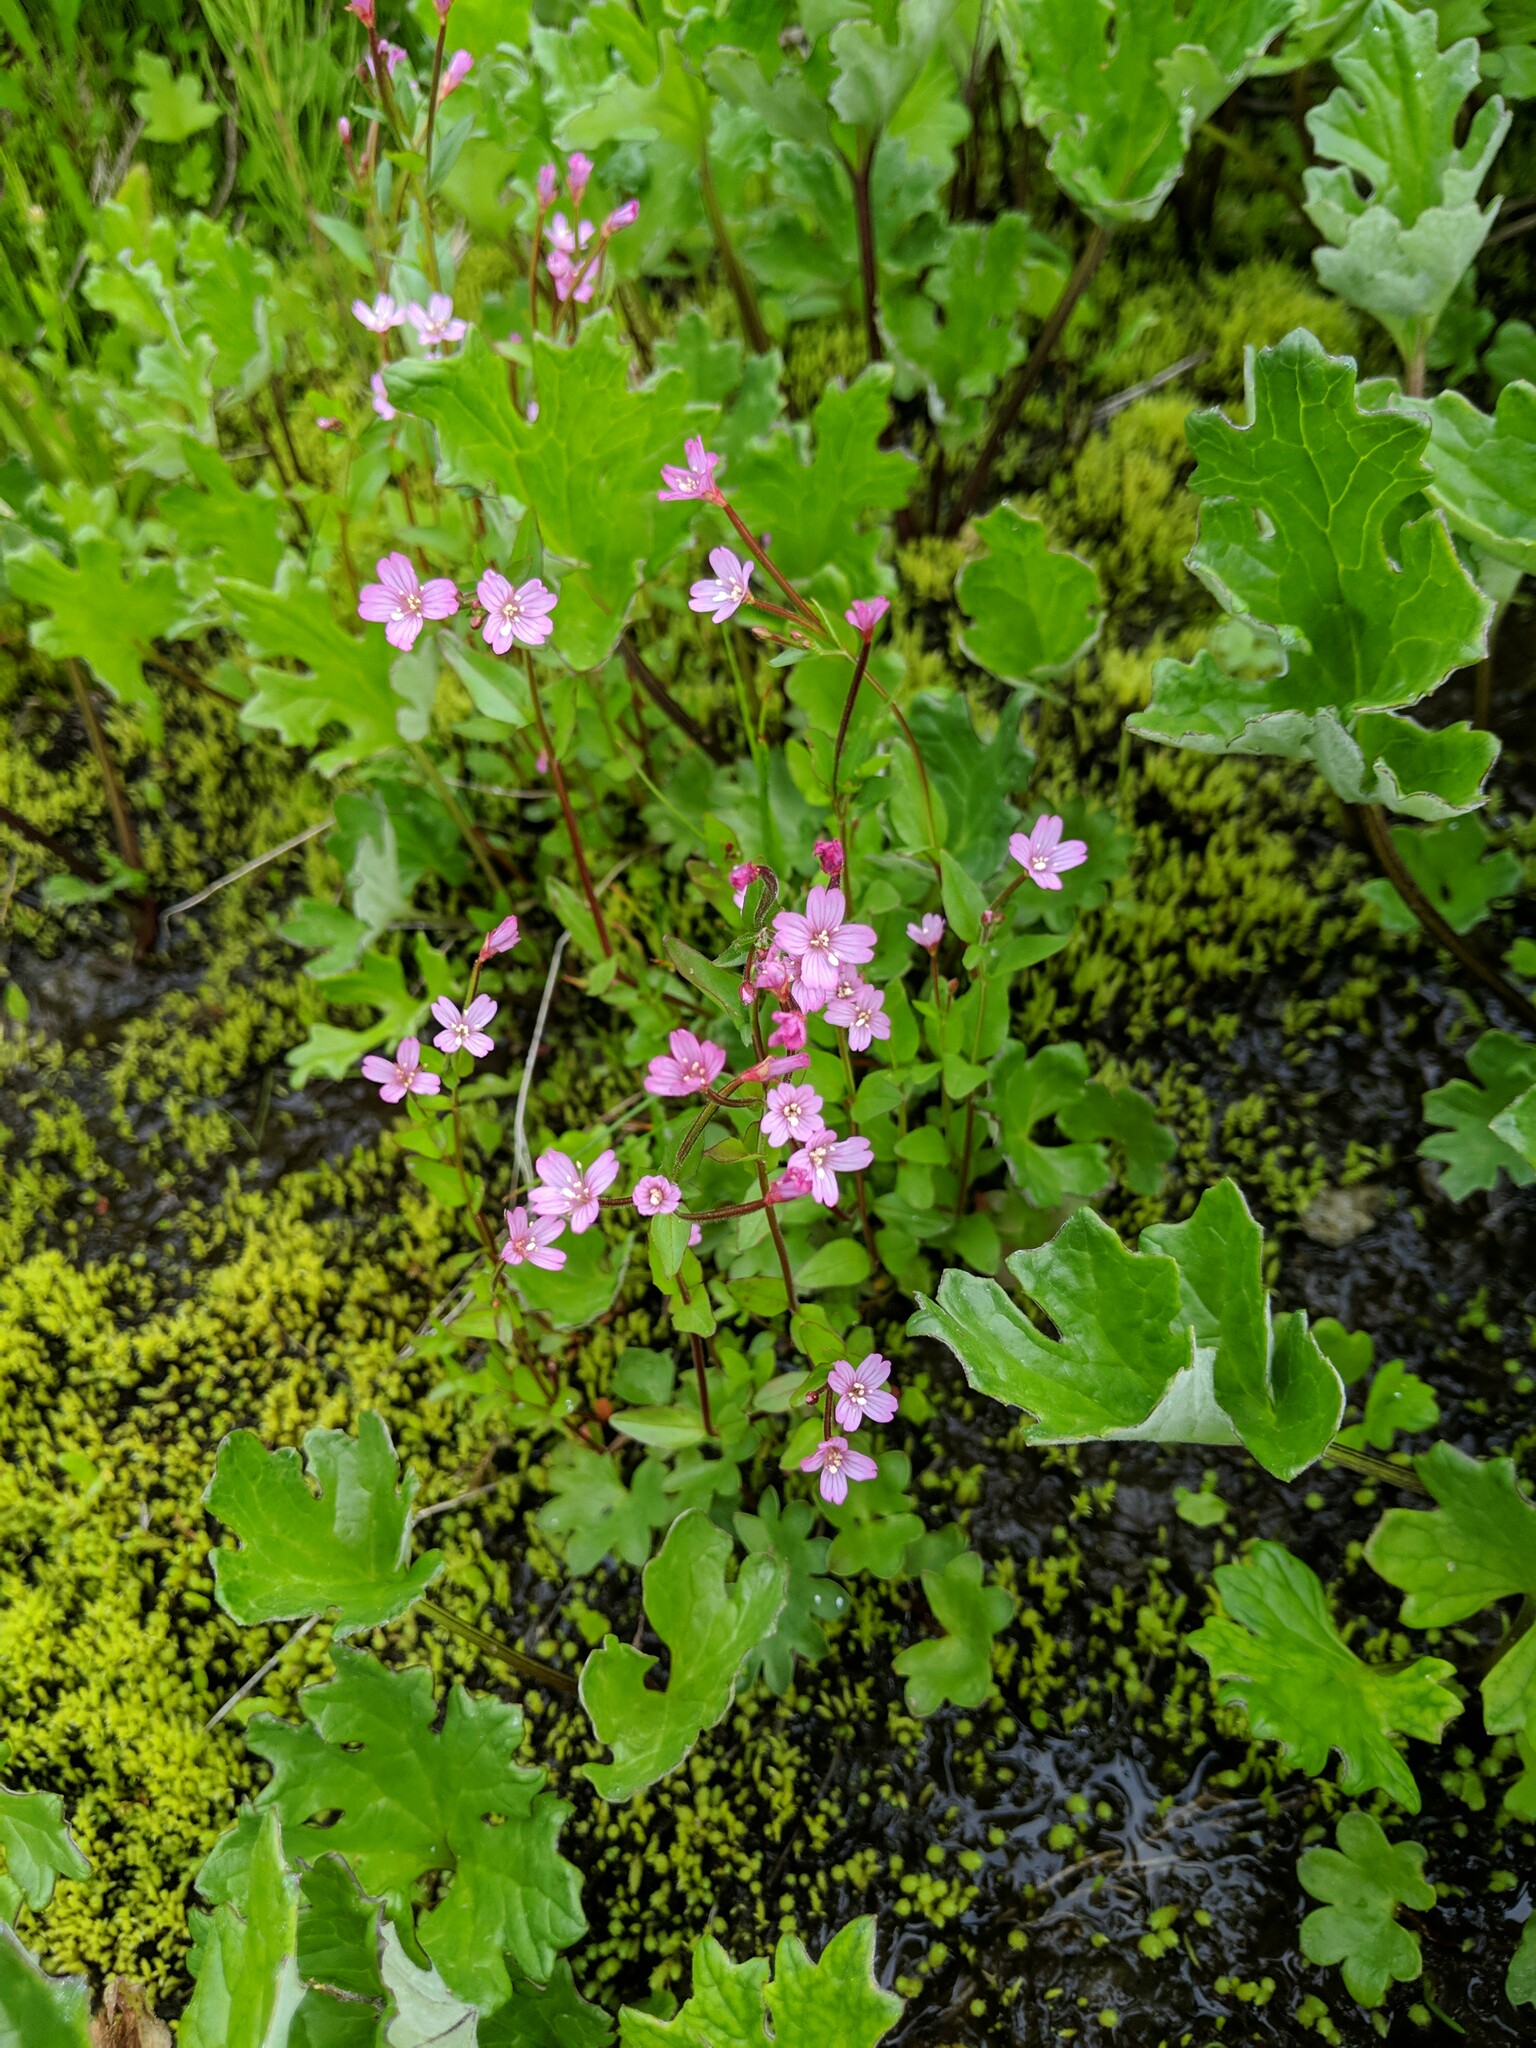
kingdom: Plantae
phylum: Tracheophyta
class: Magnoliopsida
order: Myrtales
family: Onagraceae
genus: Epilobium
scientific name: Epilobium anagallidifolium
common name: Alpine willowherb
